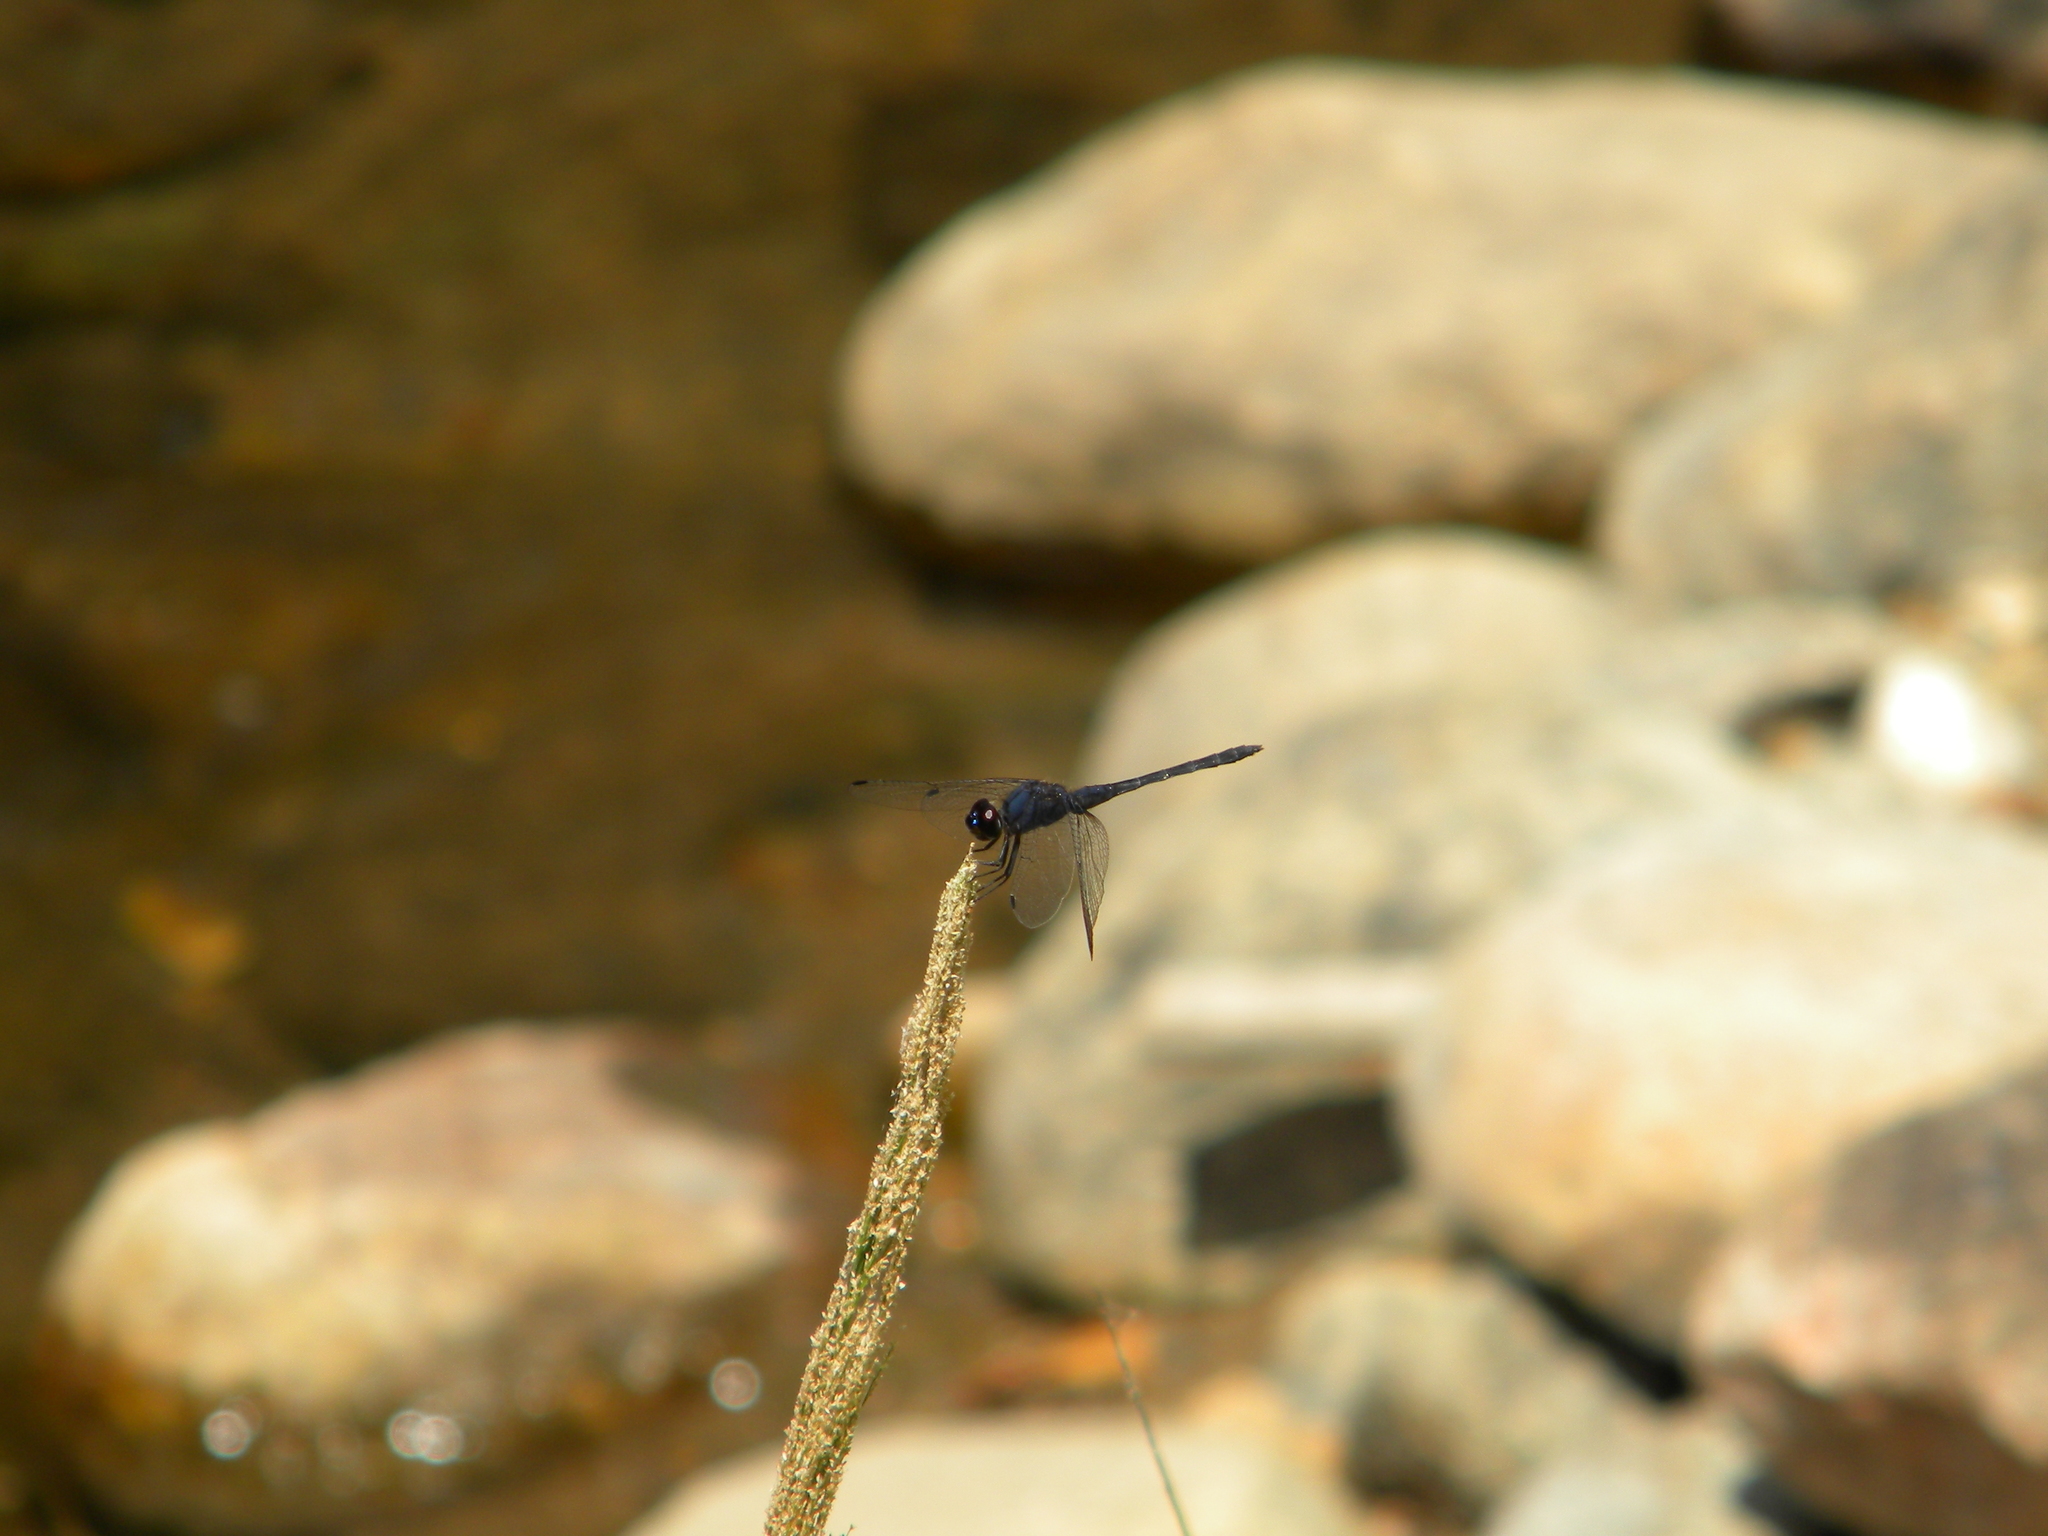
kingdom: Animalia
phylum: Arthropoda
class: Insecta
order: Odonata
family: Libellulidae
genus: Trithemis
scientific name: Trithemis festiva
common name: Indigo dropwing
